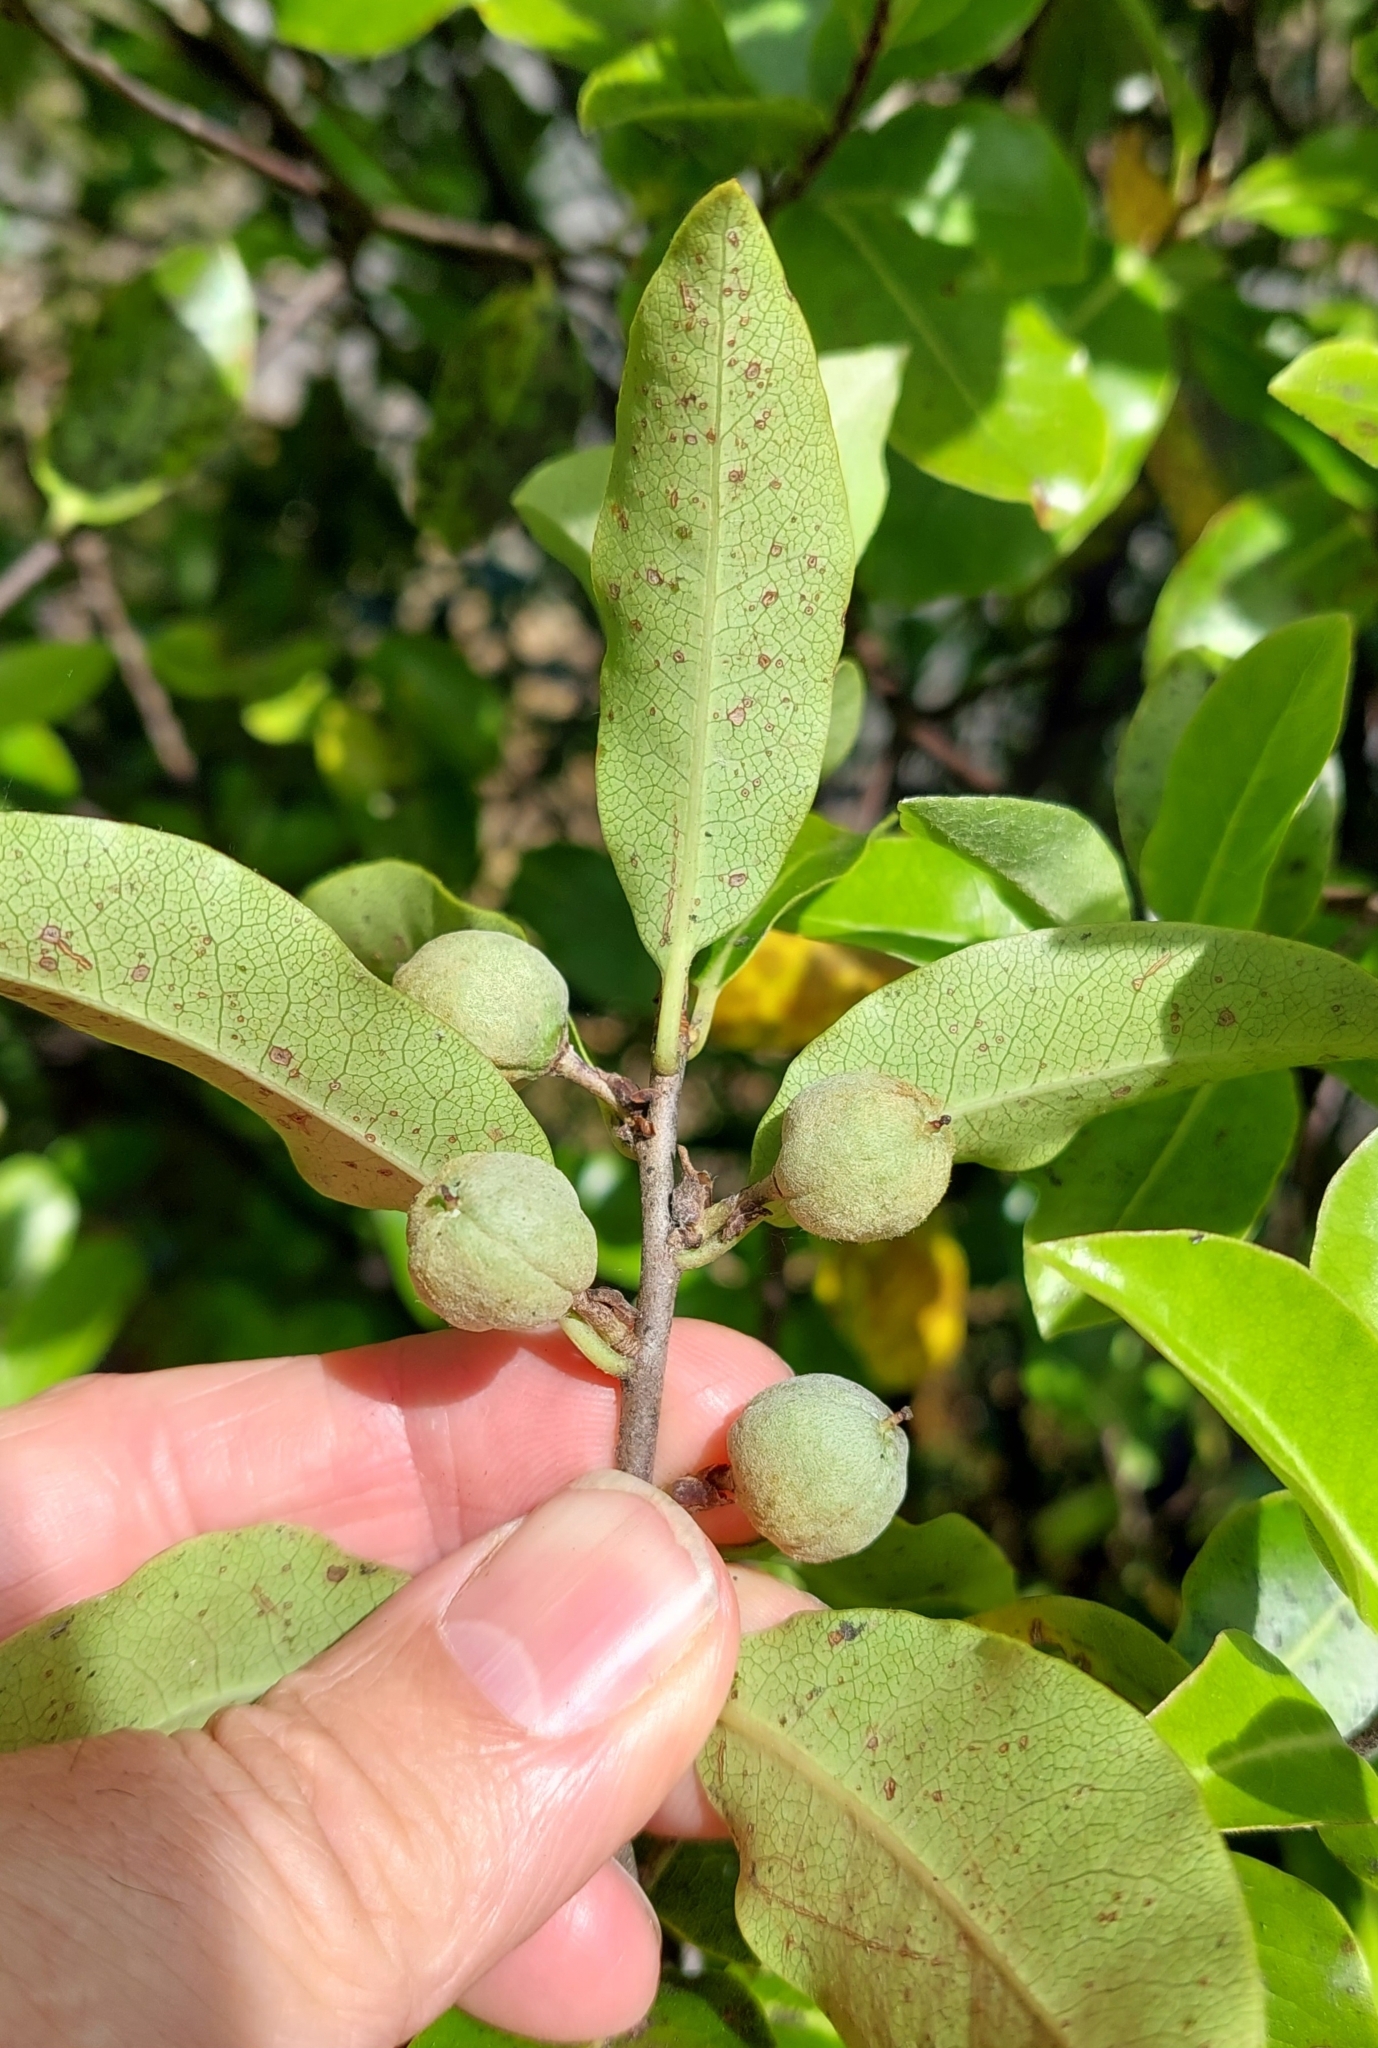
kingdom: Plantae
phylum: Tracheophyta
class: Magnoliopsida
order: Apiales
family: Pittosporaceae
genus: Pittosporum
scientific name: Pittosporum tenuifolium
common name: Kohuhu
